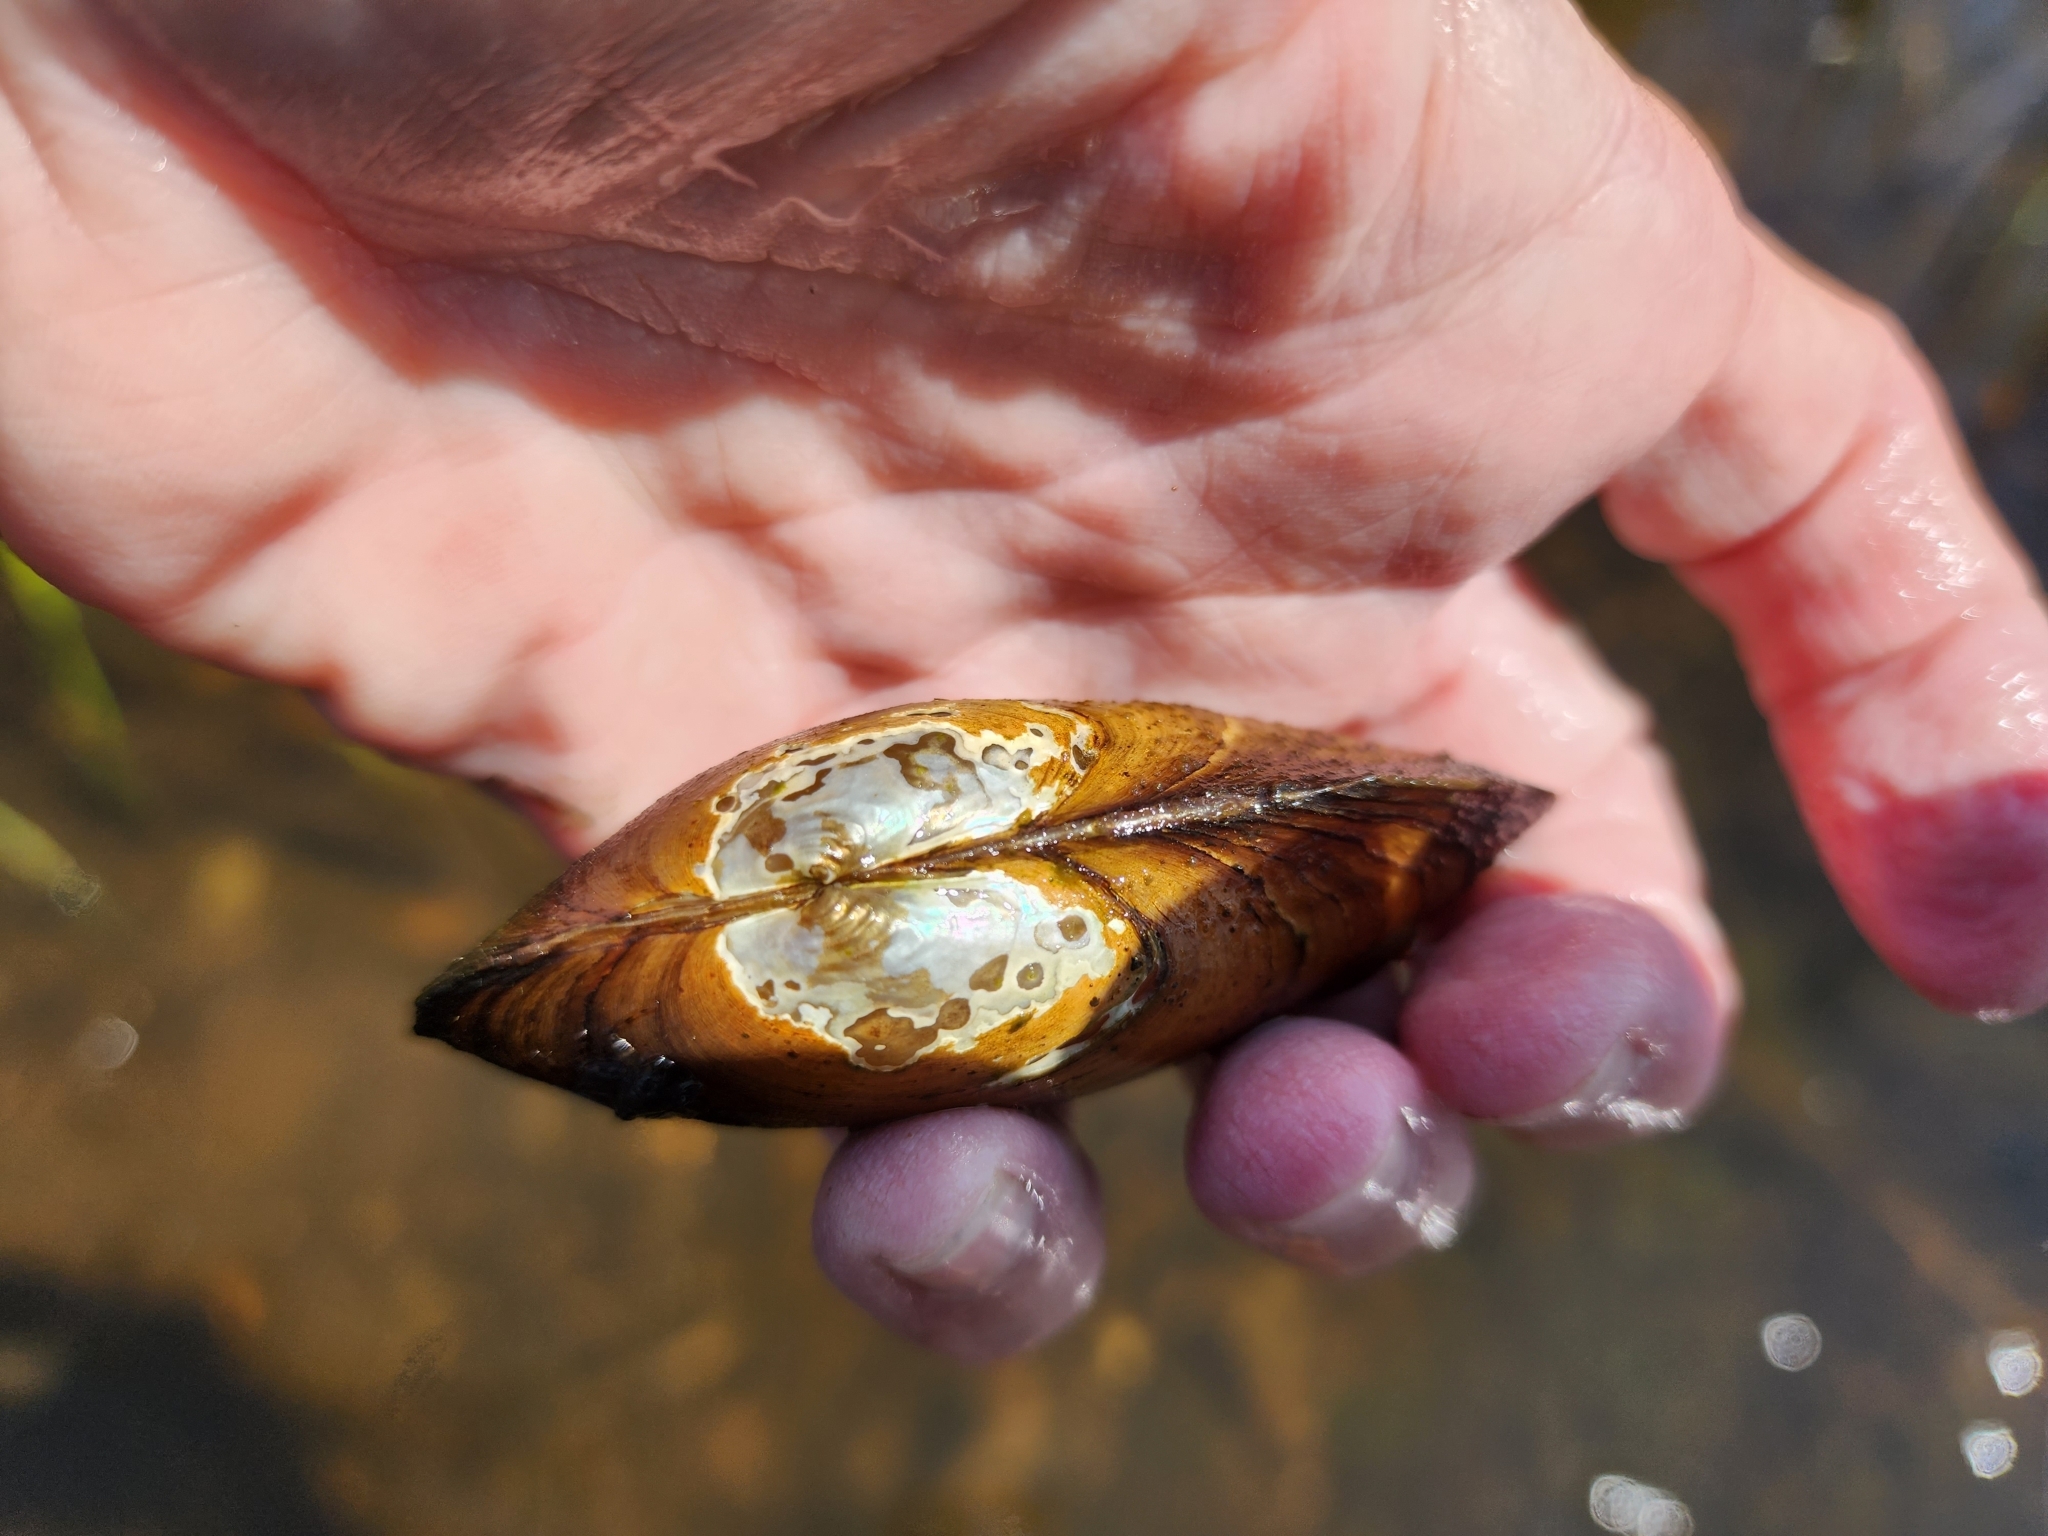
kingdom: Animalia
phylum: Mollusca
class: Bivalvia
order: Unionida
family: Unionidae
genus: Anodontoides
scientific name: Anodontoides ferussacianus
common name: Cylindrical papershell
